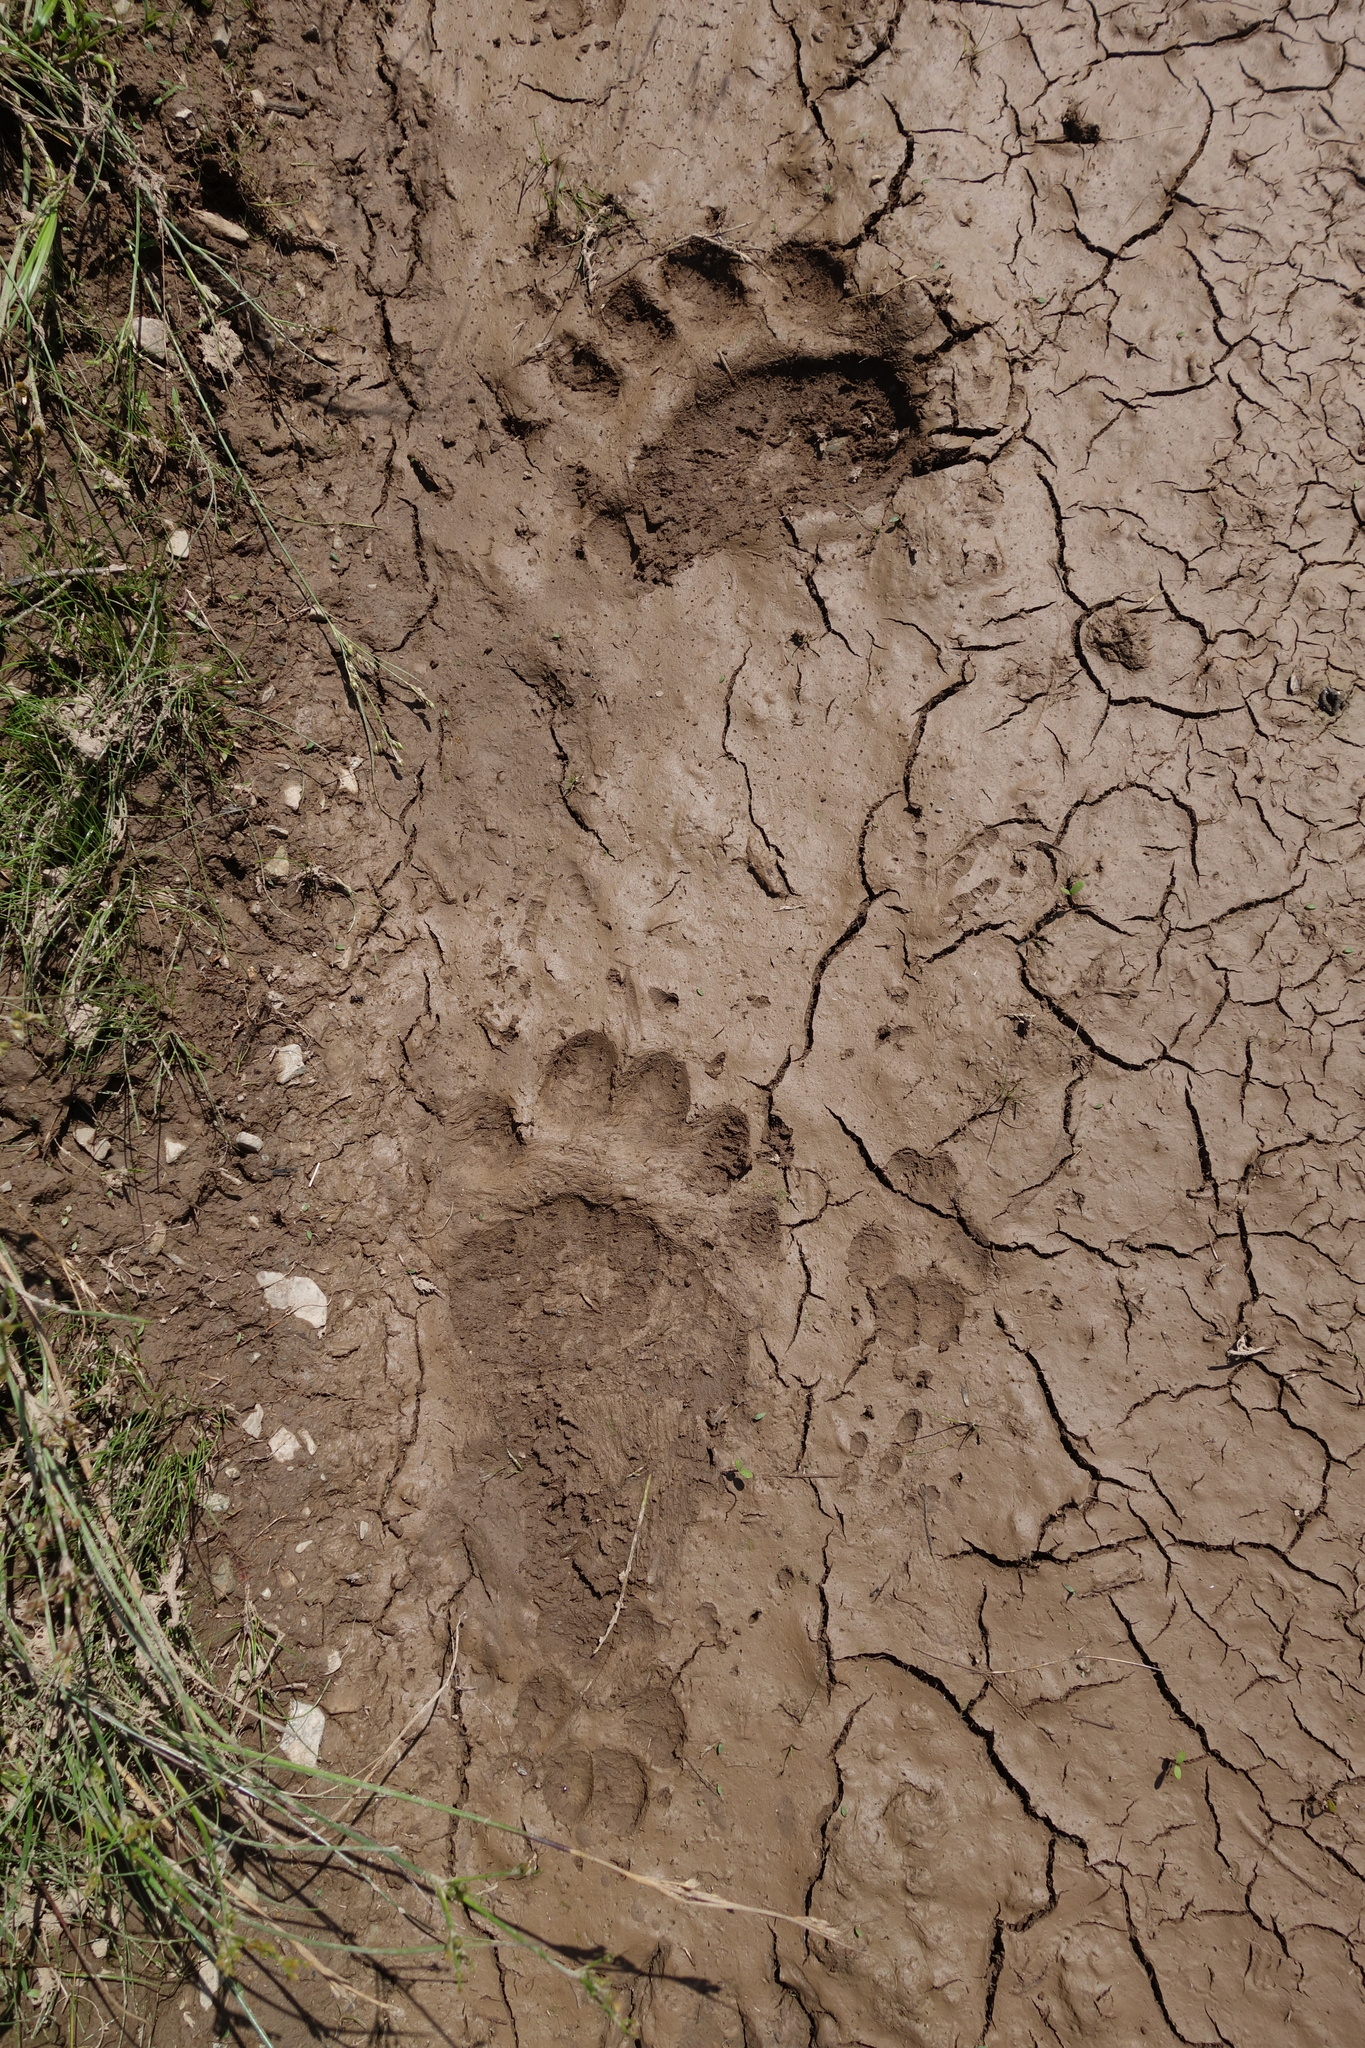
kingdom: Animalia
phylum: Chordata
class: Mammalia
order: Carnivora
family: Ursidae
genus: Ursus
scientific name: Ursus americanus
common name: American black bear
